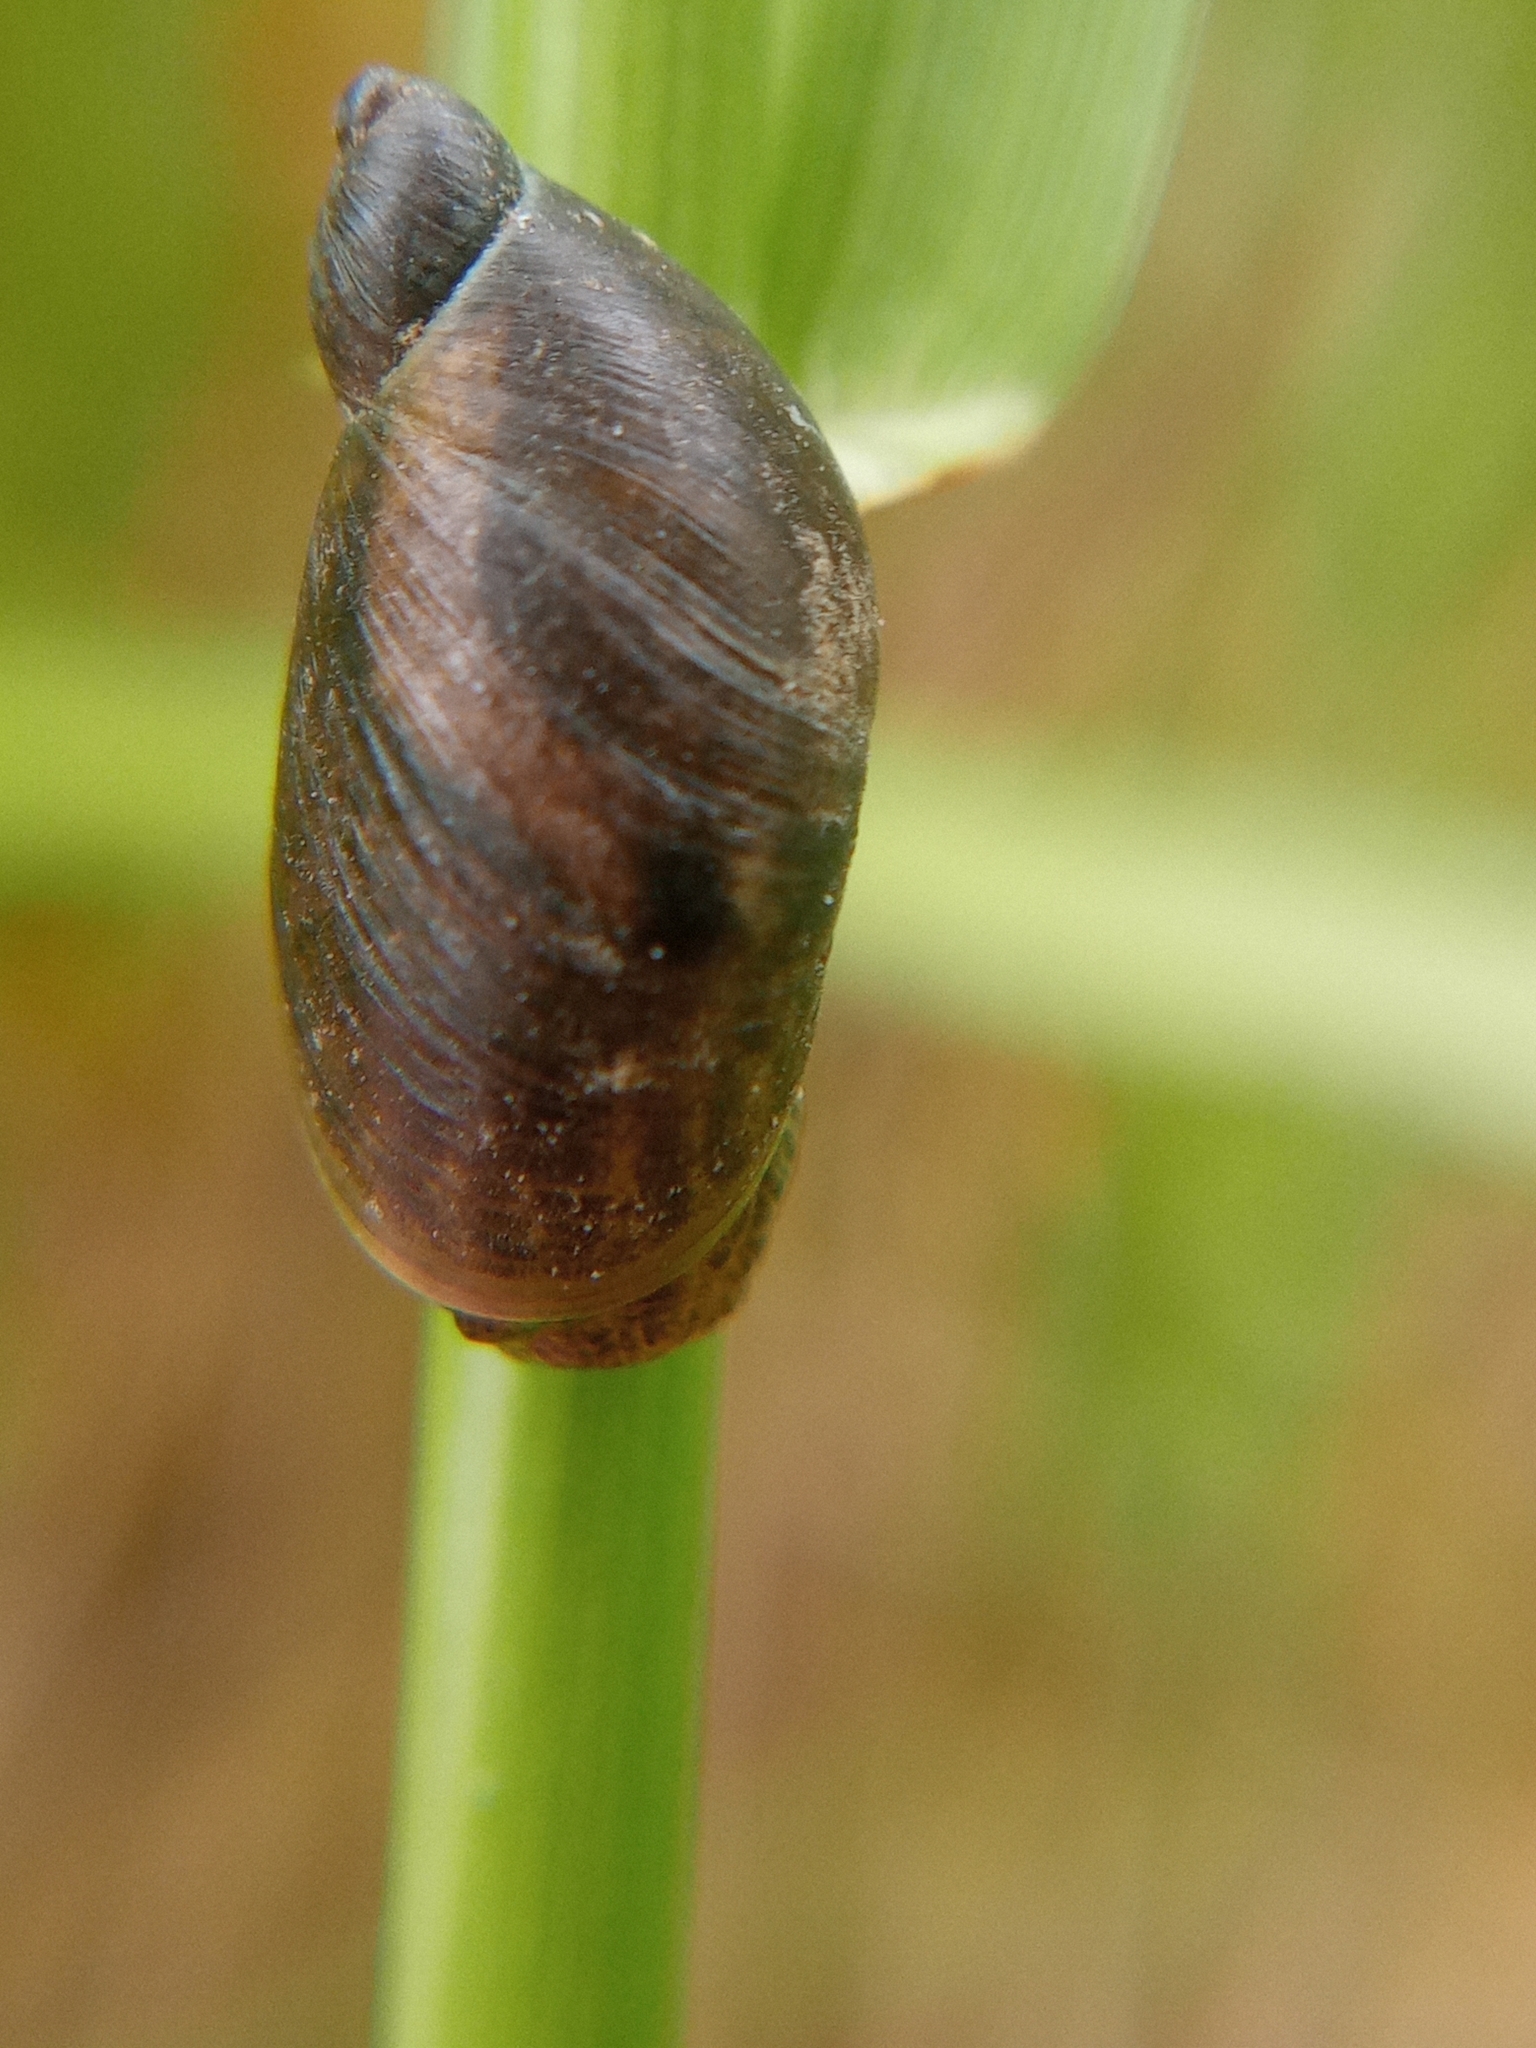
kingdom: Animalia
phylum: Mollusca
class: Gastropoda
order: Stylommatophora
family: Succineidae
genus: Succinea
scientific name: Succinea putris
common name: European ambersnail
